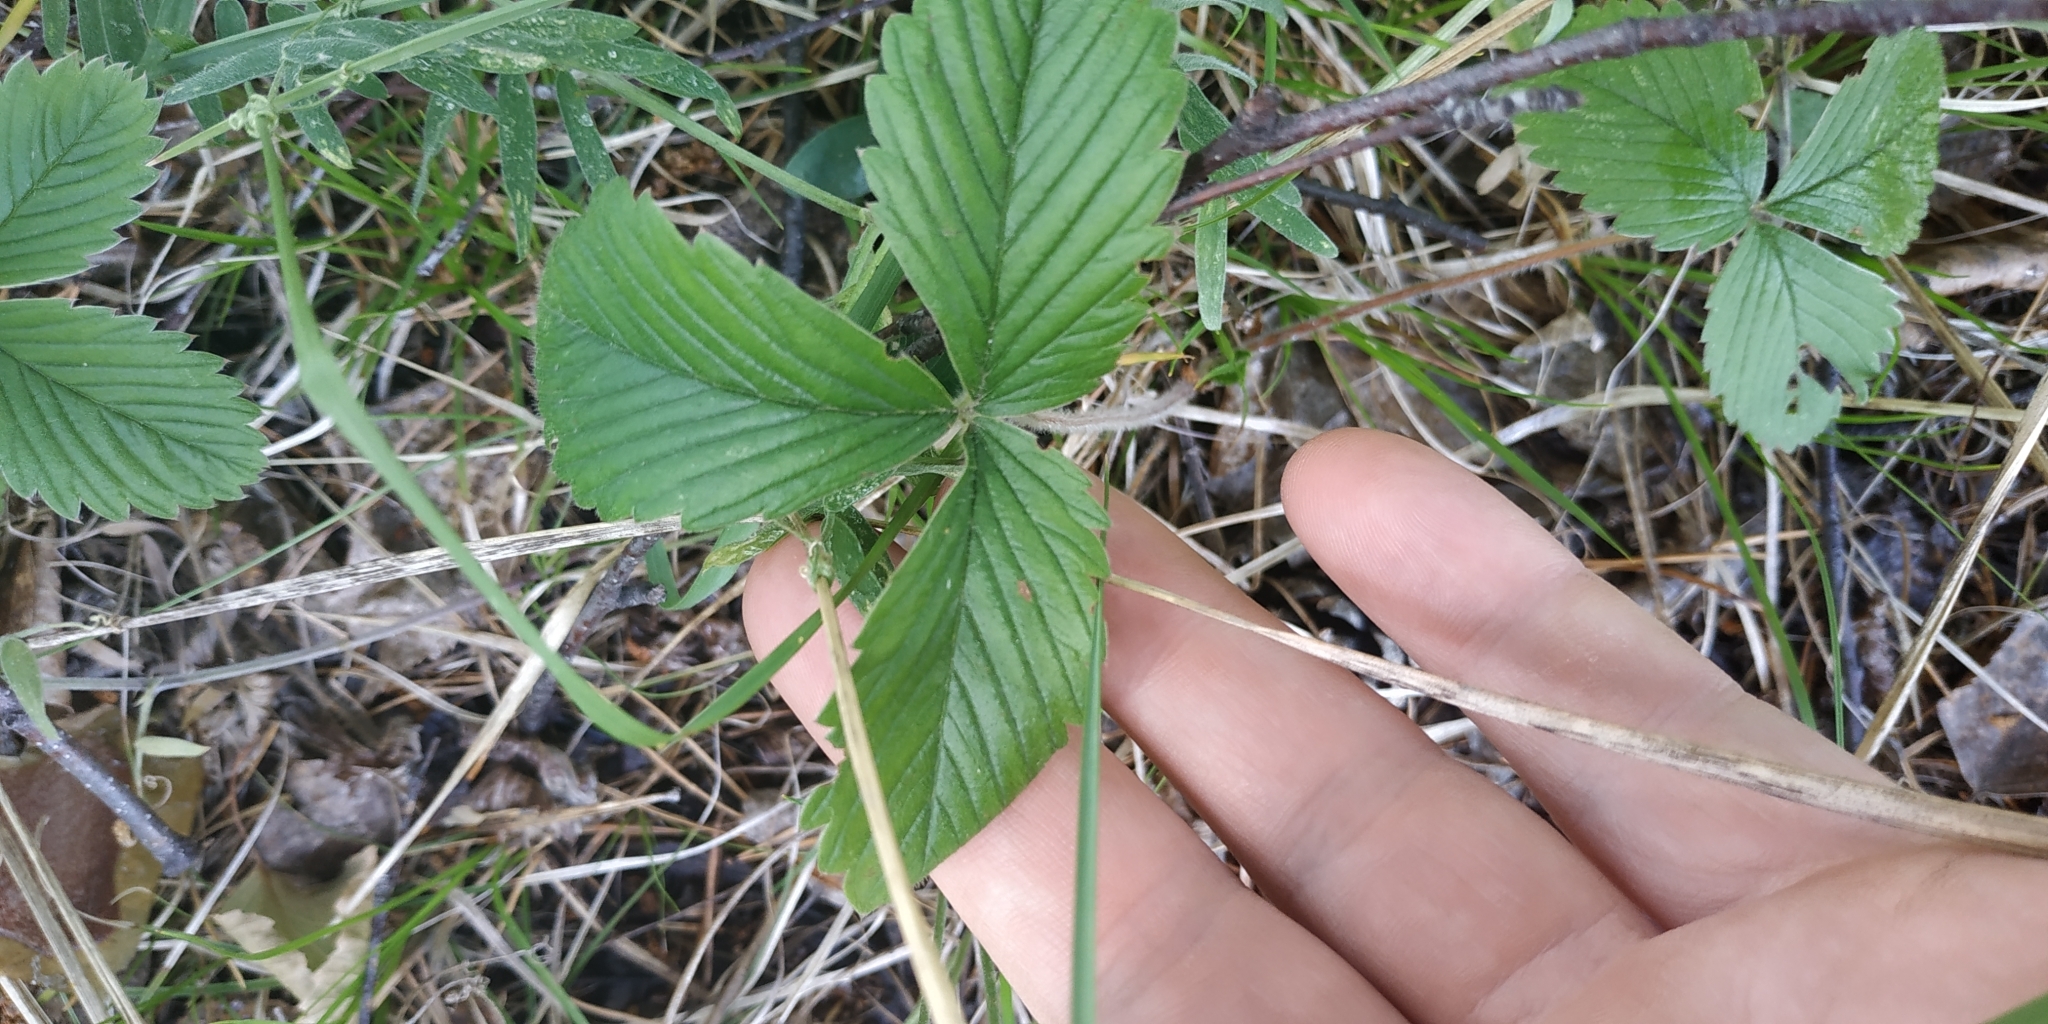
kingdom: Plantae
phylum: Tracheophyta
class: Magnoliopsida
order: Rosales
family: Rosaceae
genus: Fragaria
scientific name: Fragaria viridis
